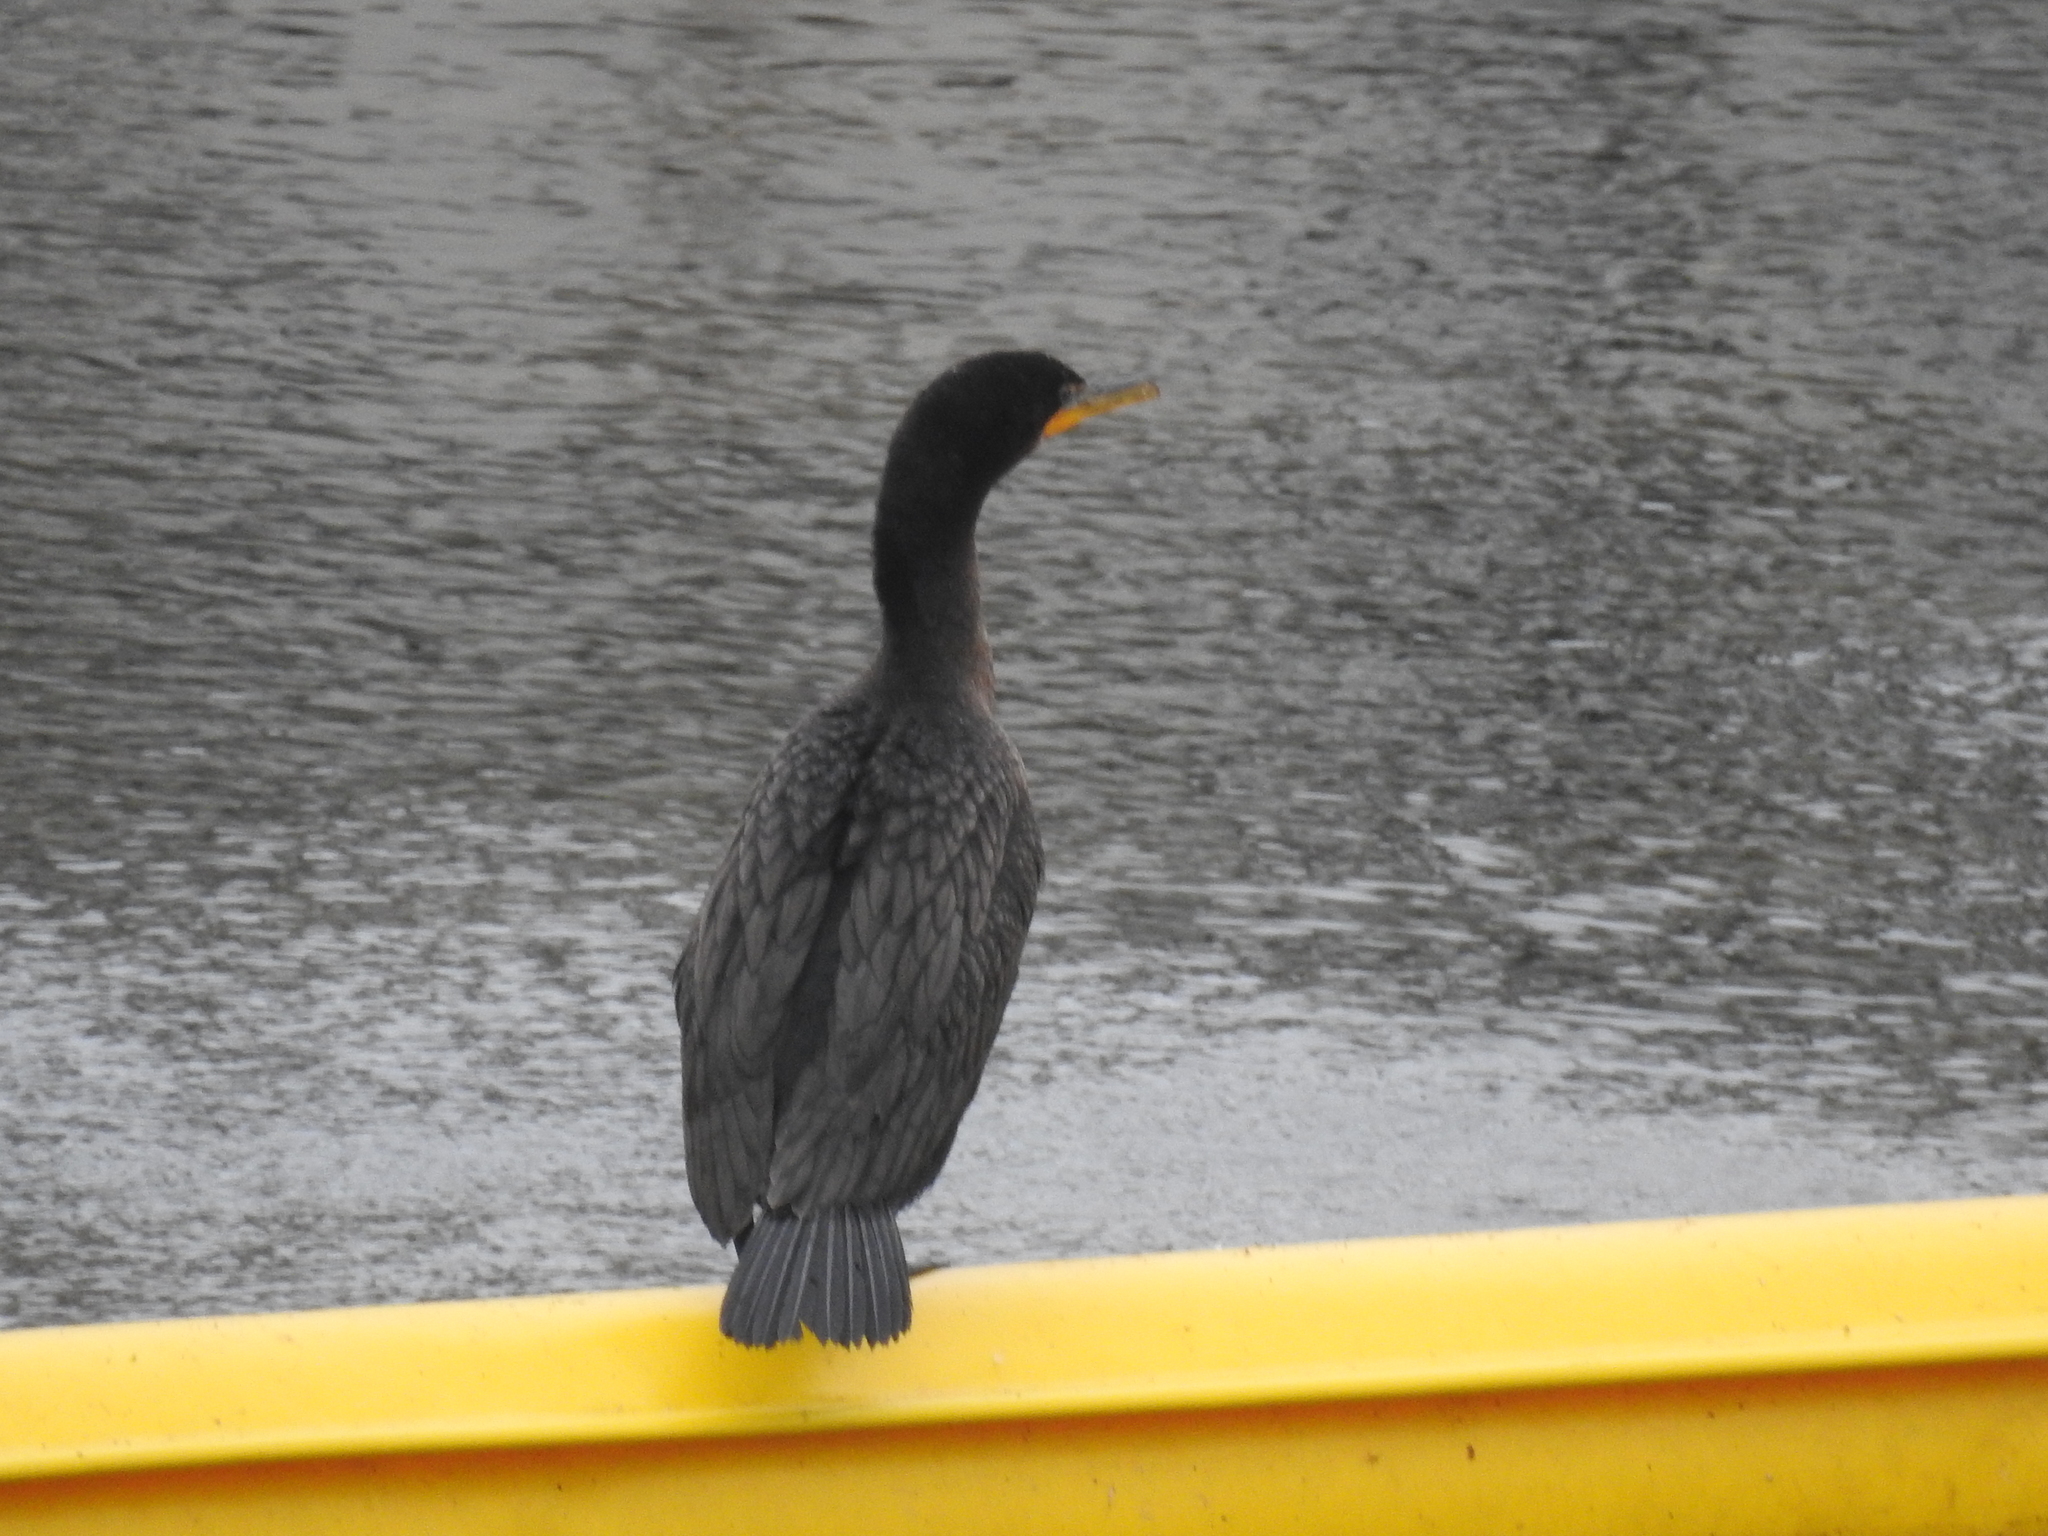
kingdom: Animalia
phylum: Chordata
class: Aves
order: Suliformes
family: Phalacrocoracidae
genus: Phalacrocorax
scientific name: Phalacrocorax auritus
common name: Double-crested cormorant
